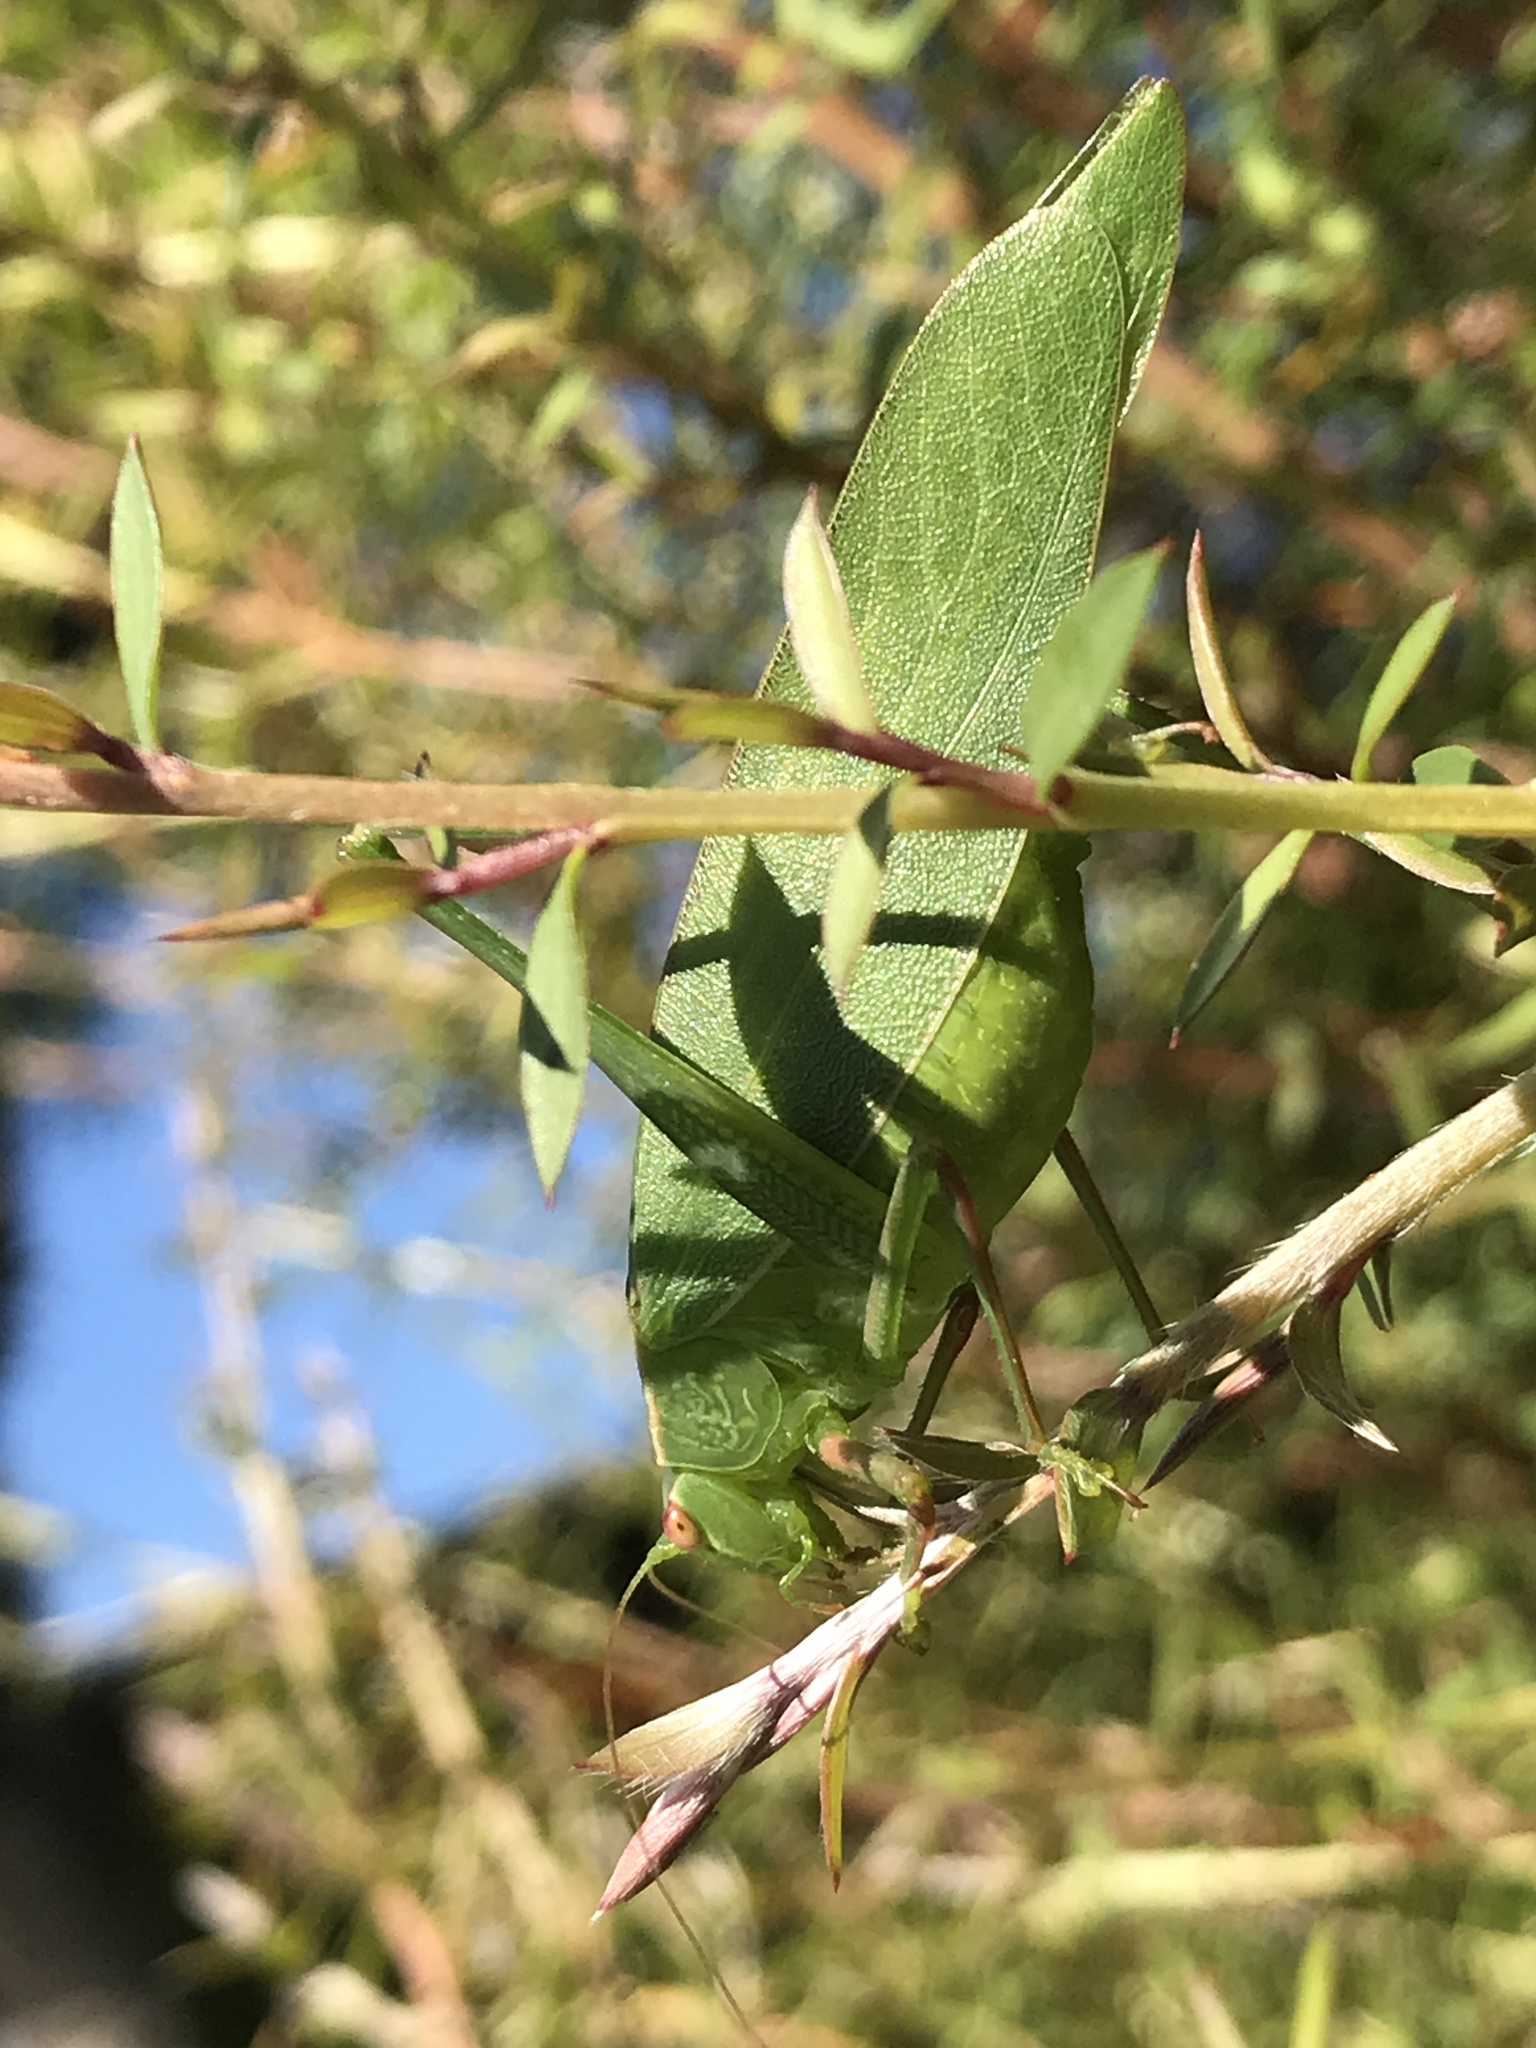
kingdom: Animalia
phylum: Arthropoda
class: Insecta
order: Orthoptera
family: Tettigoniidae
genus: Caedicia
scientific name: Caedicia simplex
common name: Common garden katydid
